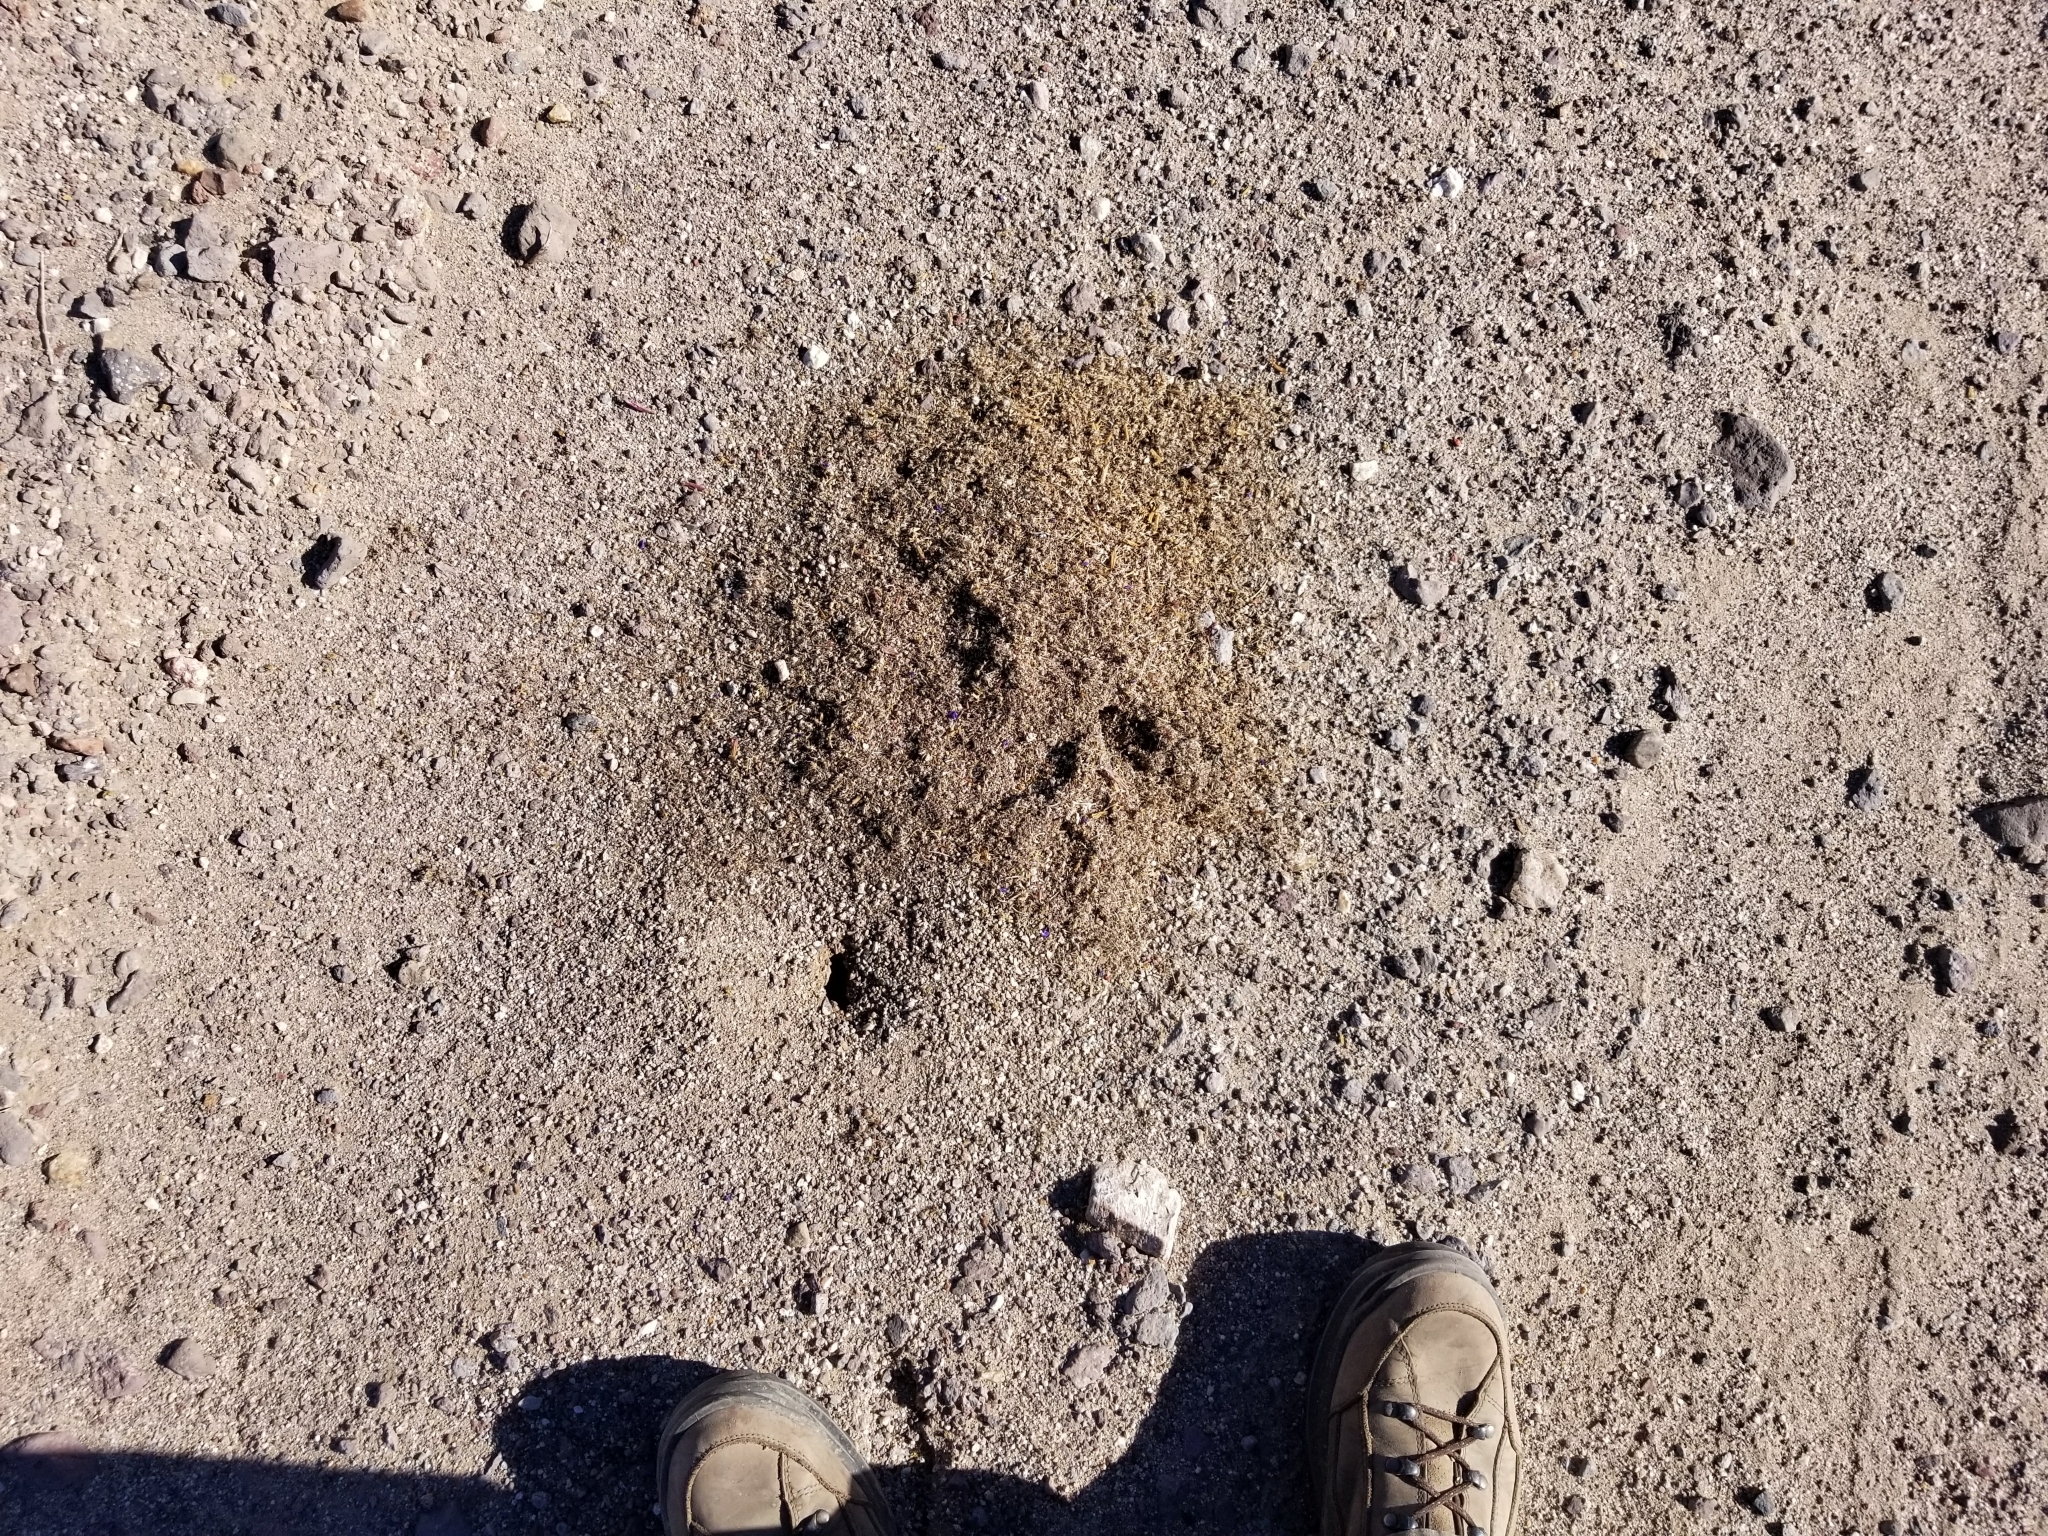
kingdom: Animalia
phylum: Arthropoda
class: Insecta
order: Hymenoptera
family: Formicidae
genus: Messor
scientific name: Messor pergandei
